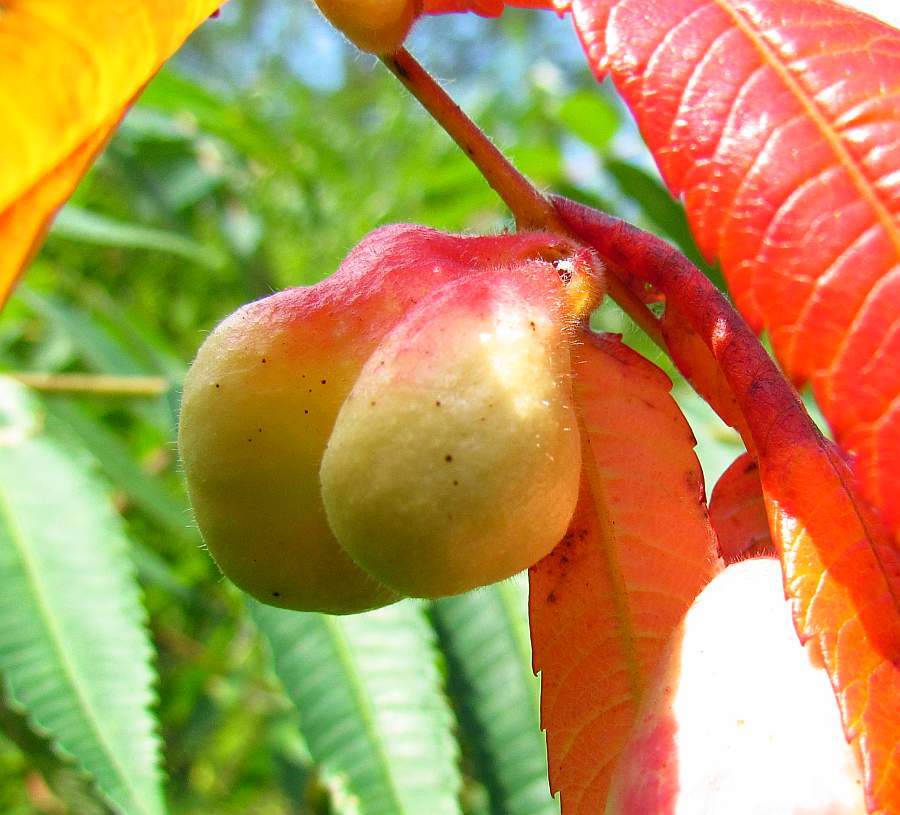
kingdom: Animalia
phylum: Arthropoda
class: Insecta
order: Hemiptera
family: Aphididae
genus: Melaphis
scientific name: Melaphis rhois
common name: Sumac gall aphid
